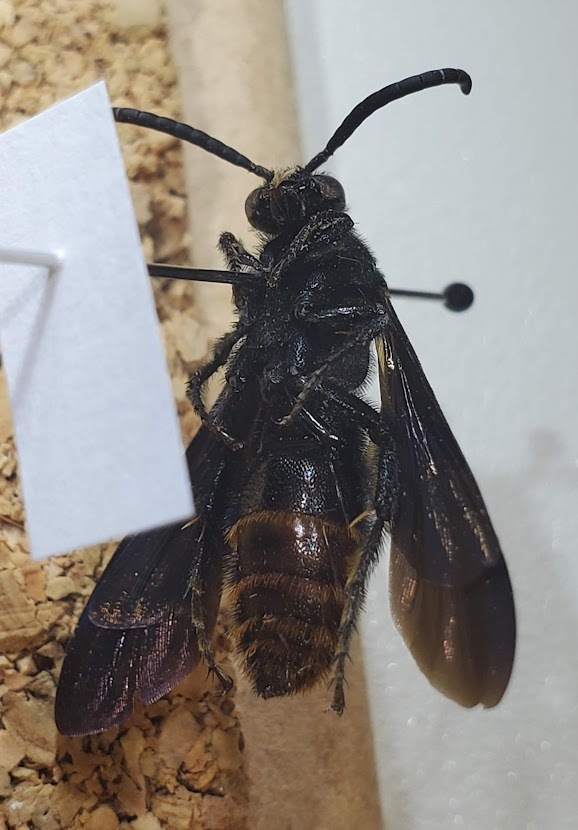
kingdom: Animalia
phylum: Arthropoda
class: Insecta
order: Hymenoptera
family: Scoliidae
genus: Scolia
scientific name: Scolia dubia
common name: Blue-winged scoliid wasp
